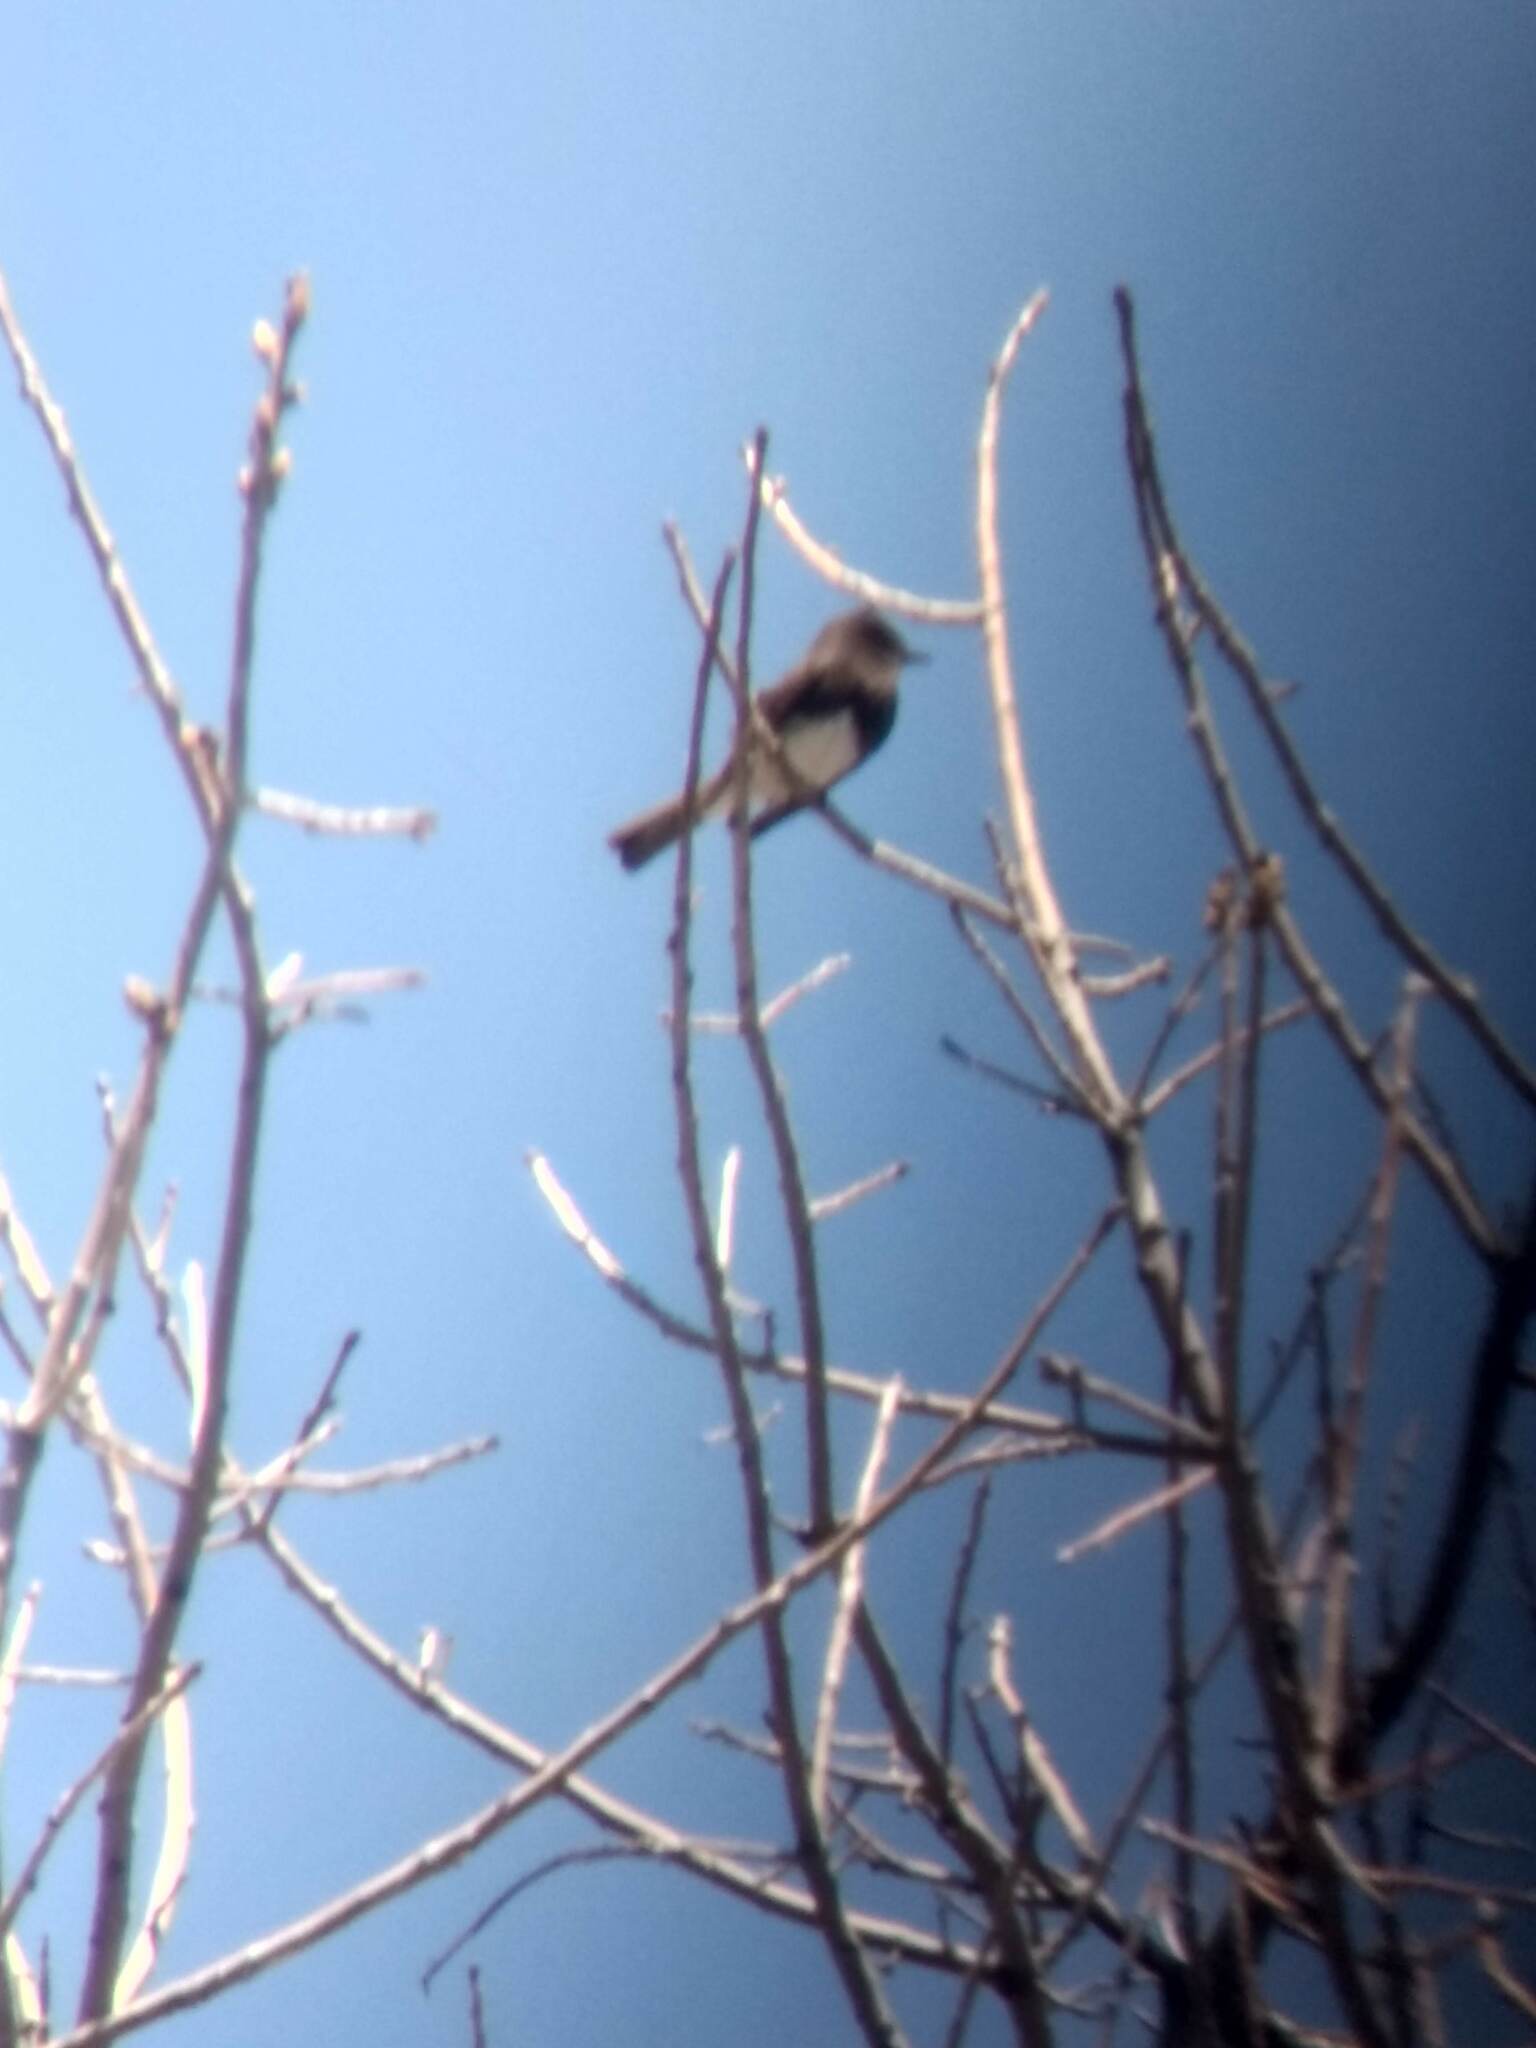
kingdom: Animalia
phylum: Chordata
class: Aves
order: Passeriformes
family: Tyrannidae
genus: Sayornis
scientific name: Sayornis nigricans
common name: Black phoebe
